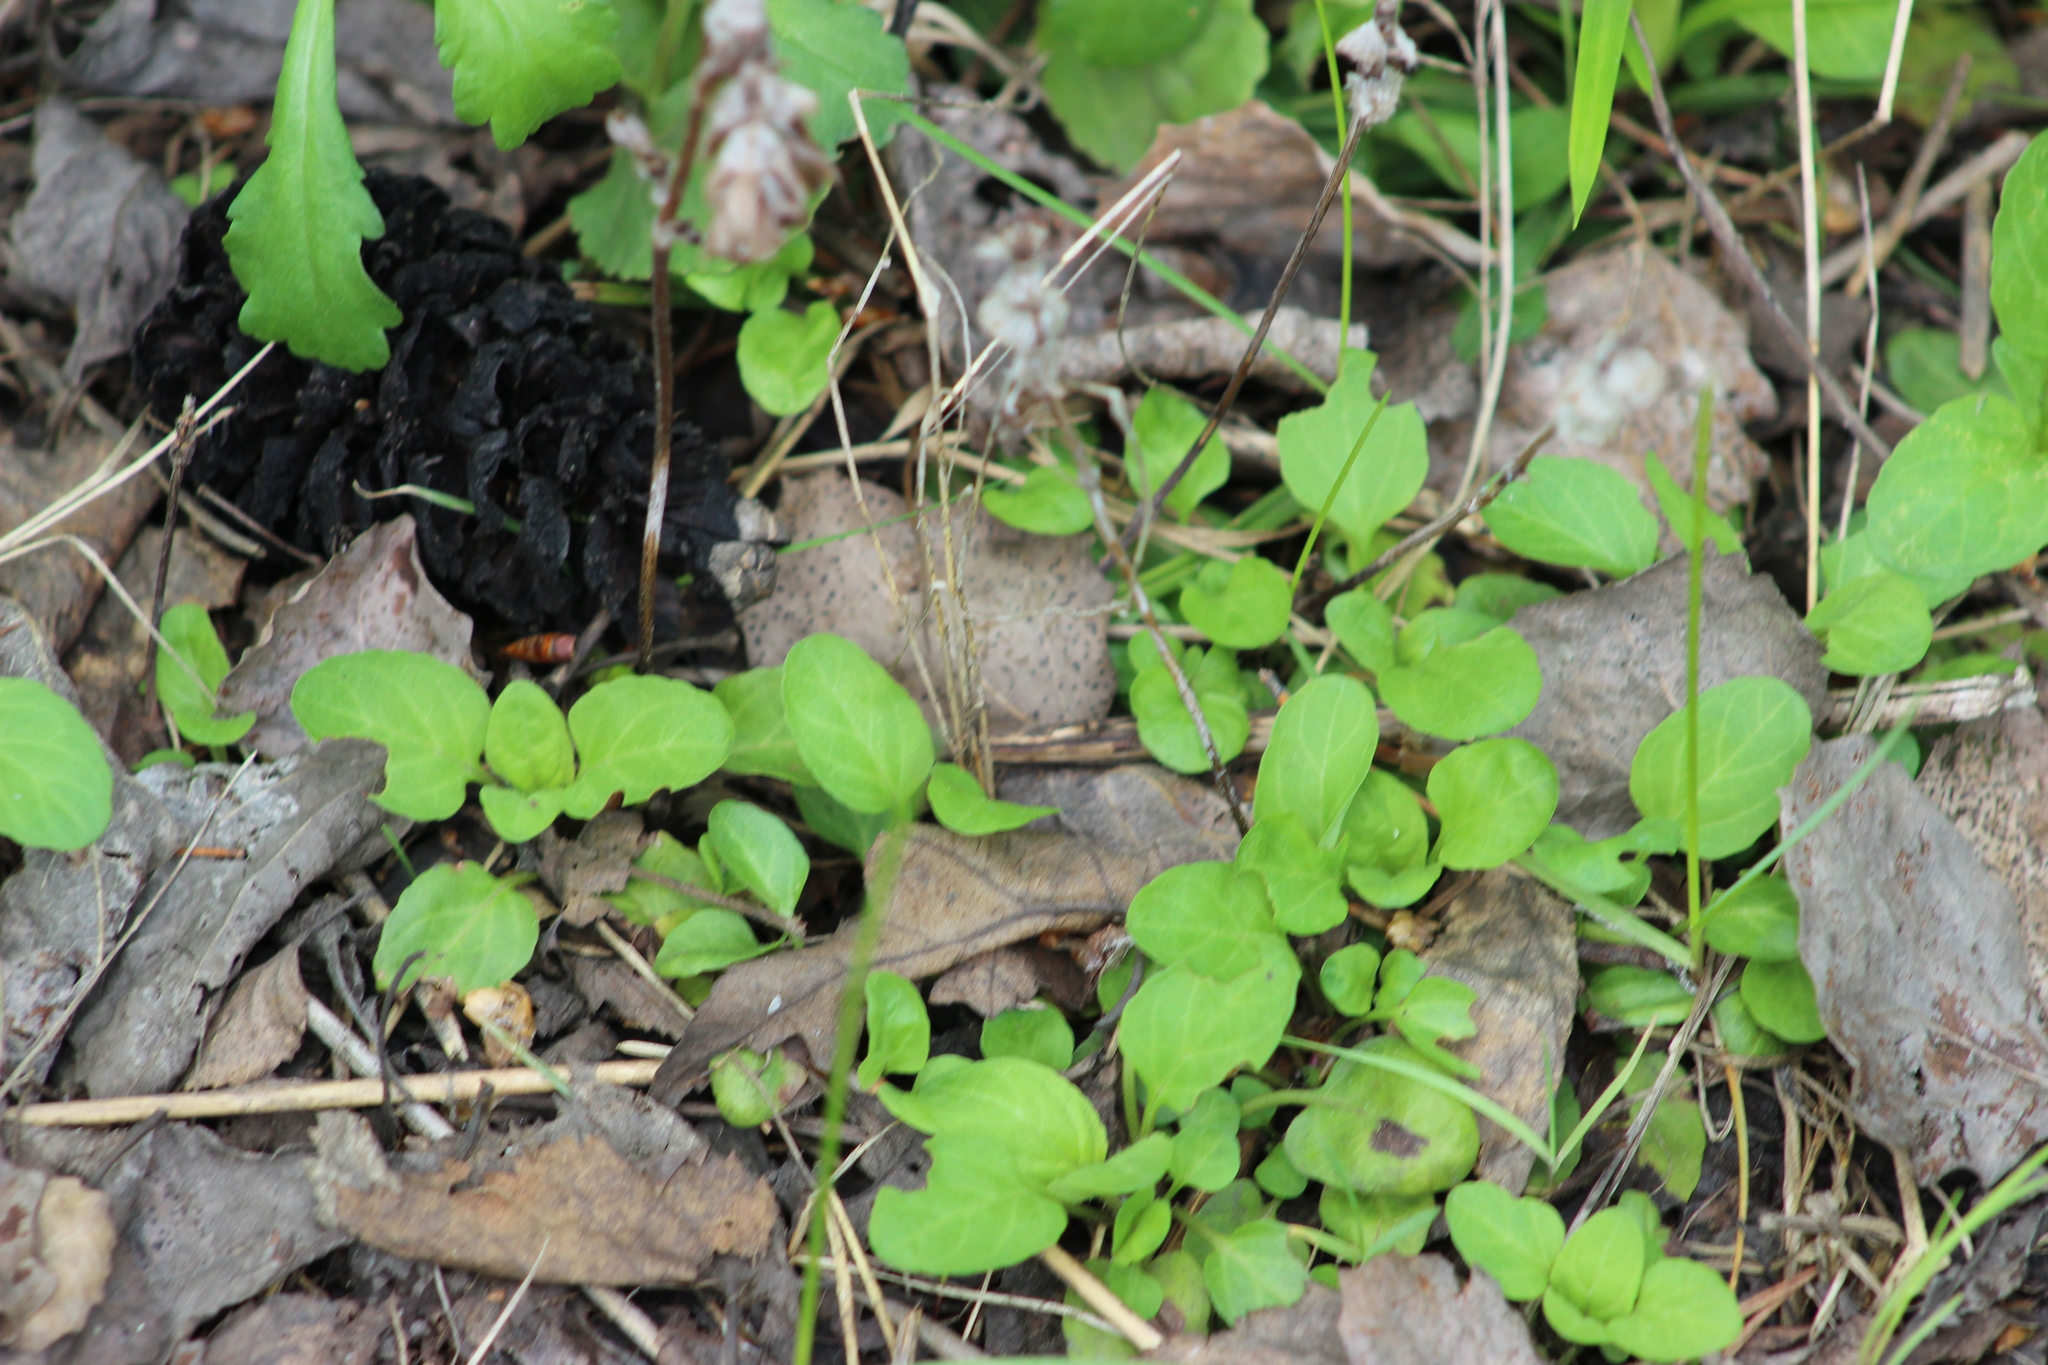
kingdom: Plantae
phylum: Tracheophyta
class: Magnoliopsida
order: Lamiales
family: Lamiaceae
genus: Prunella
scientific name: Prunella vulgaris
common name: Heal-all
